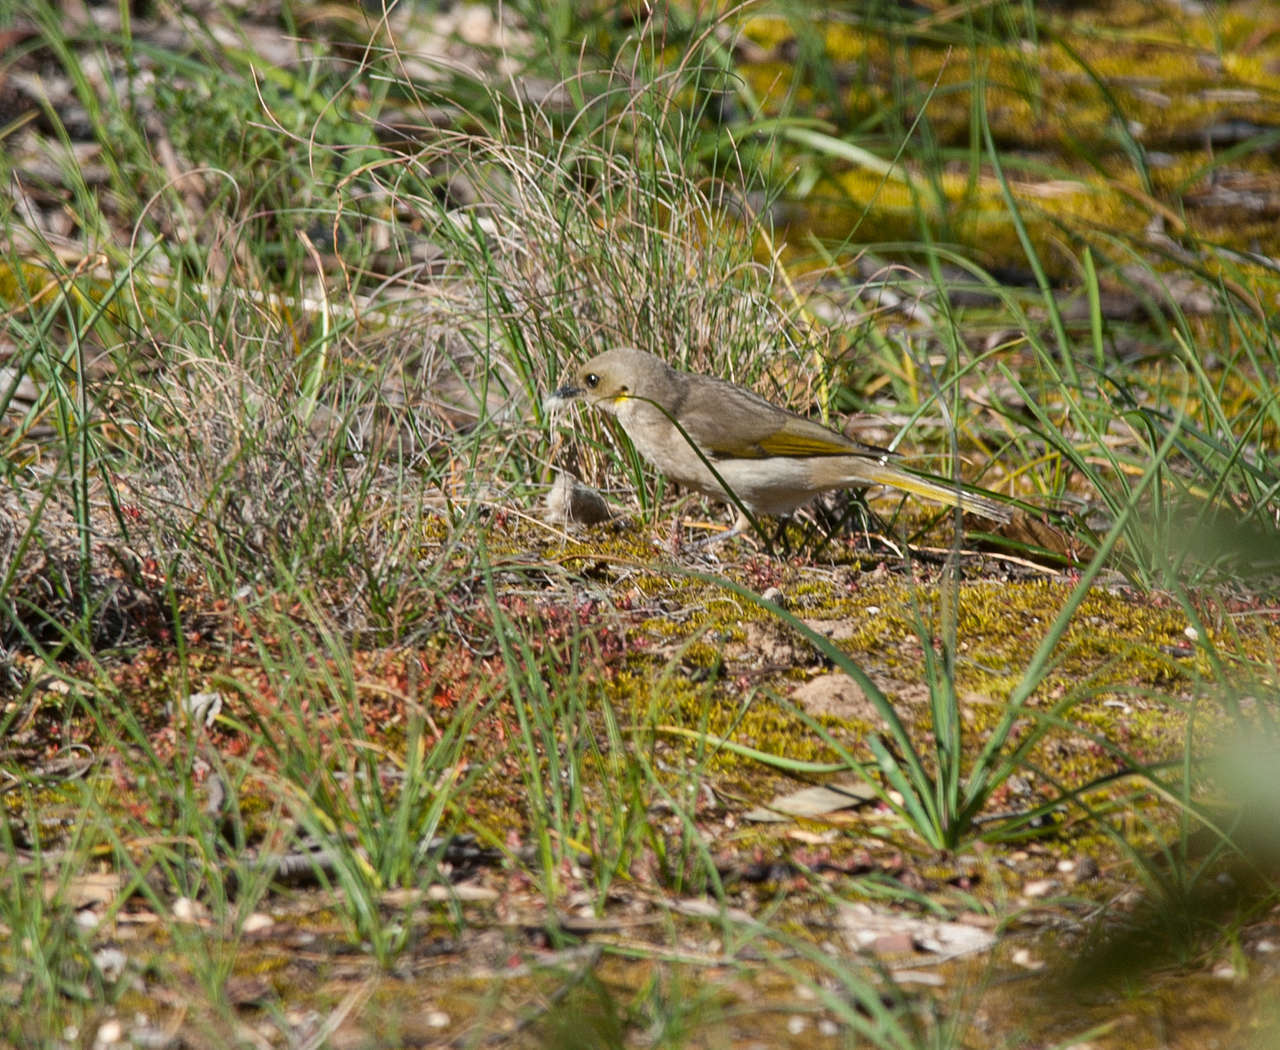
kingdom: Animalia
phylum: Chordata
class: Aves
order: Passeriformes
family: Meliphagidae
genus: Ptilotula
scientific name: Ptilotula fusca
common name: Fuscous honeyeater
